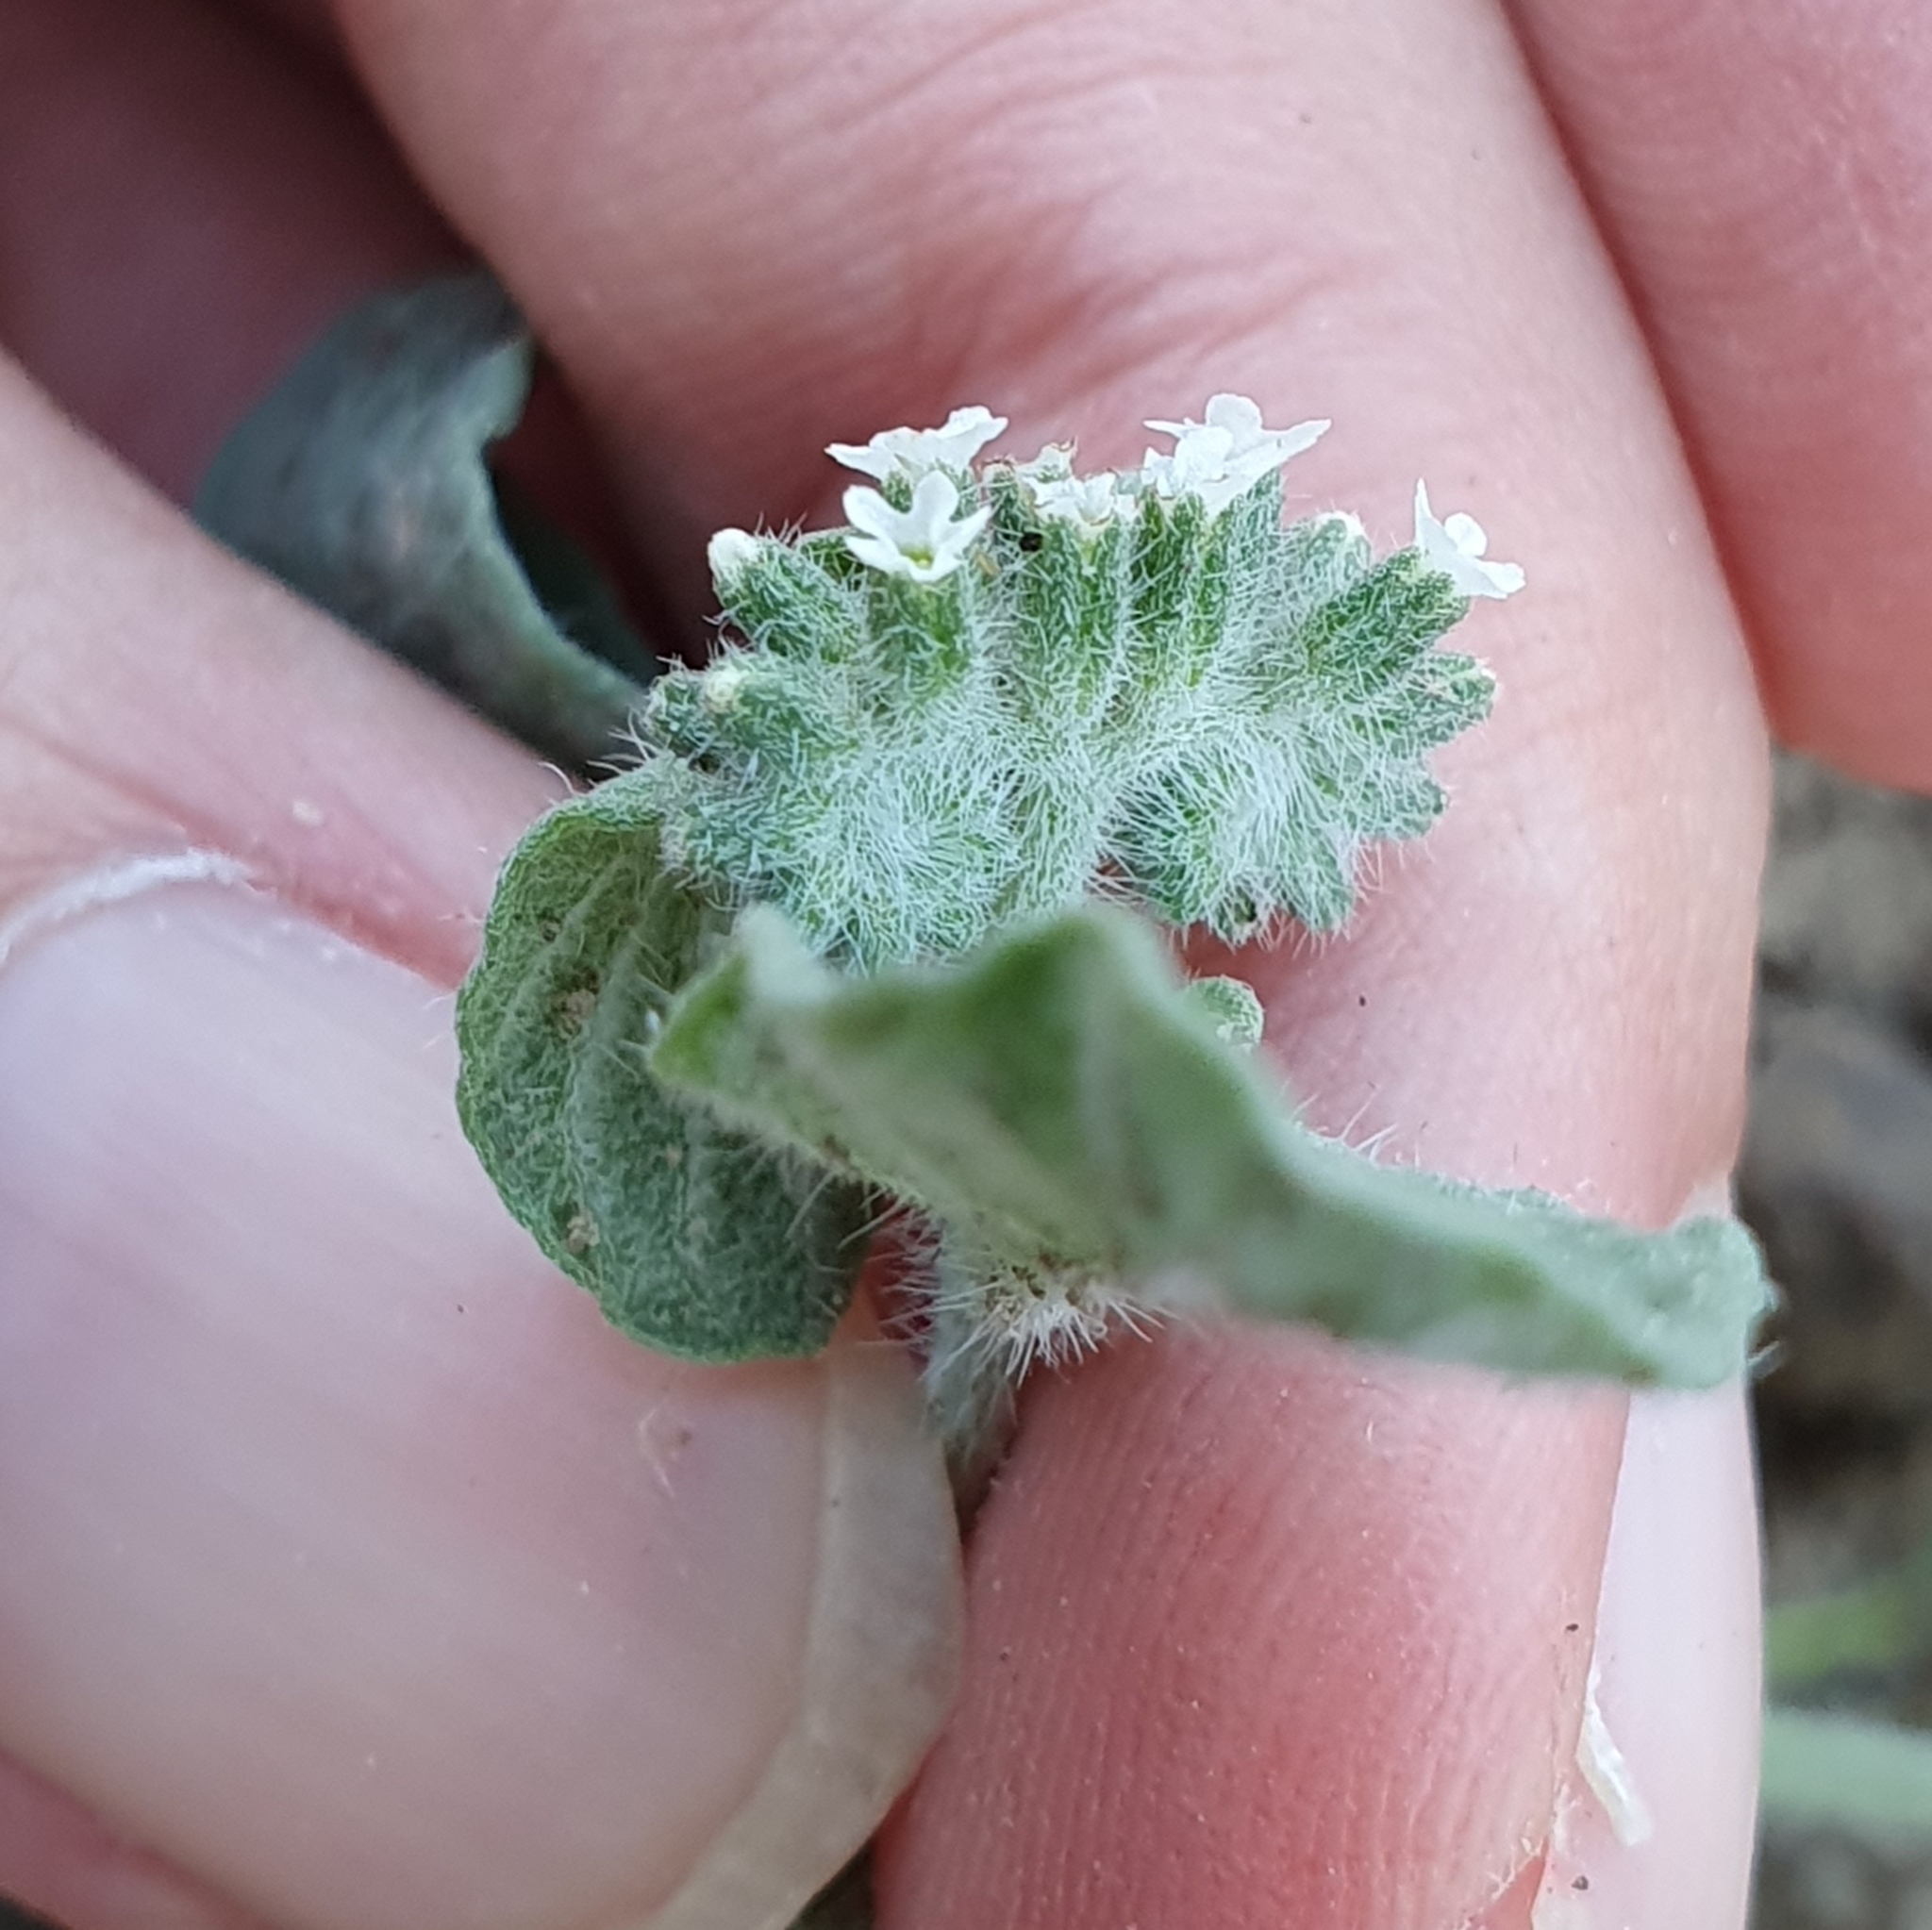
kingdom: Plantae
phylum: Tracheophyta
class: Magnoliopsida
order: Boraginales
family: Heliotropiaceae
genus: Heliotropium
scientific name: Heliotropium supinum
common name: Dwarf heliotrope
